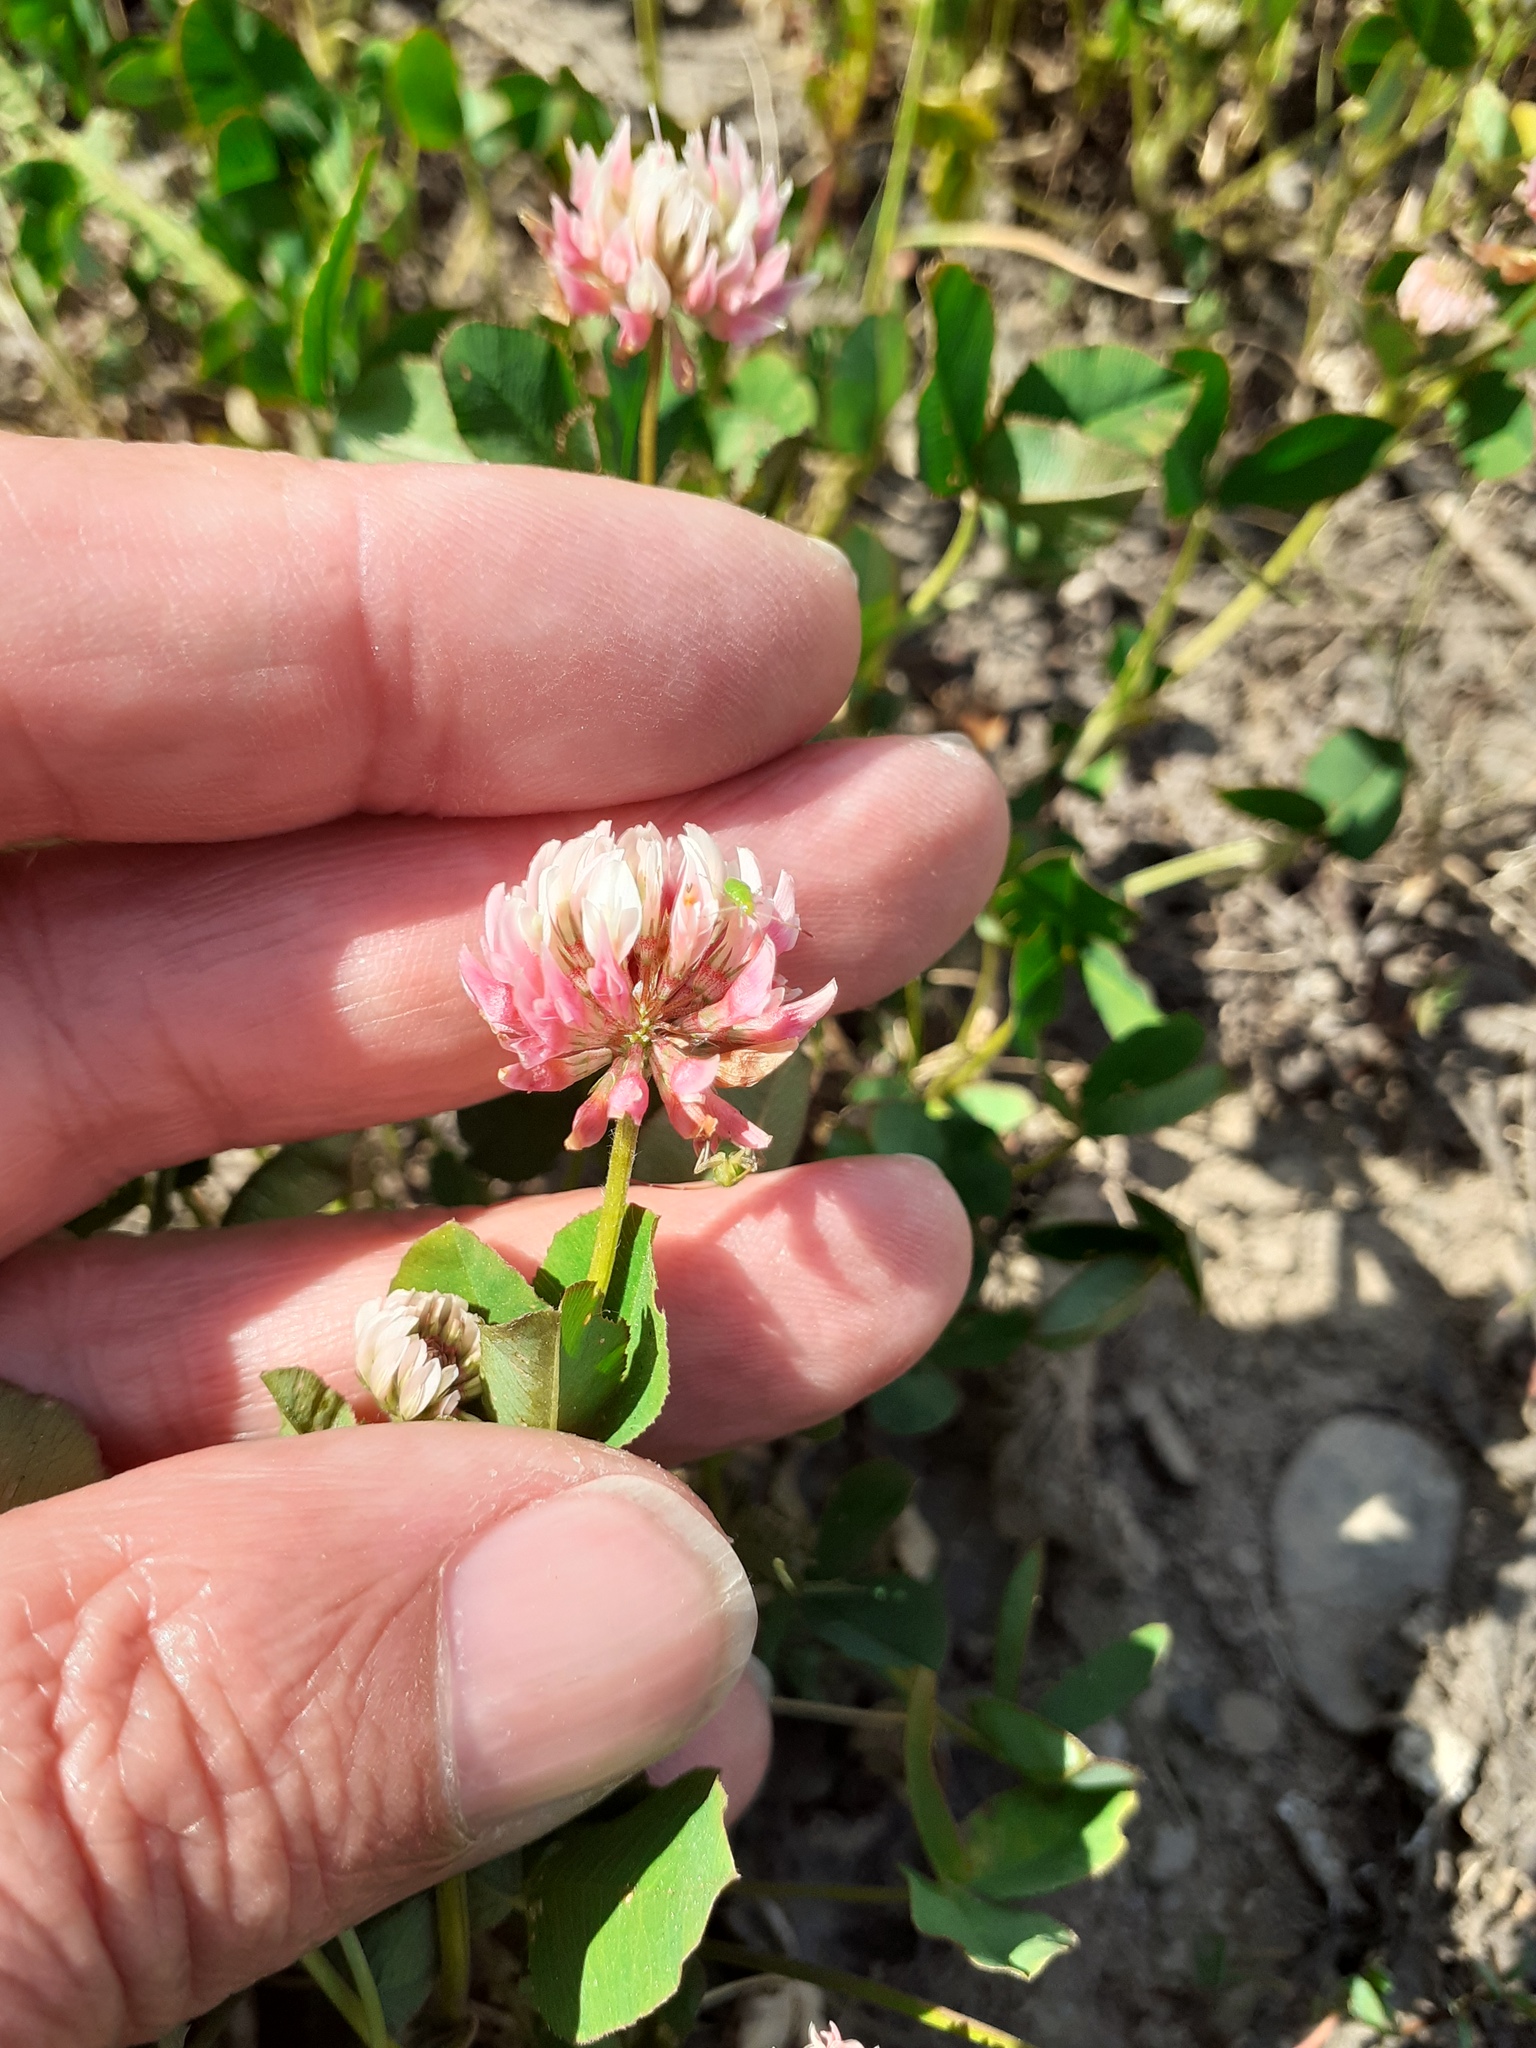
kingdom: Plantae
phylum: Tracheophyta
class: Magnoliopsida
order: Fabales
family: Fabaceae
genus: Trifolium
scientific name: Trifolium hybridum
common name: Alsike clover
